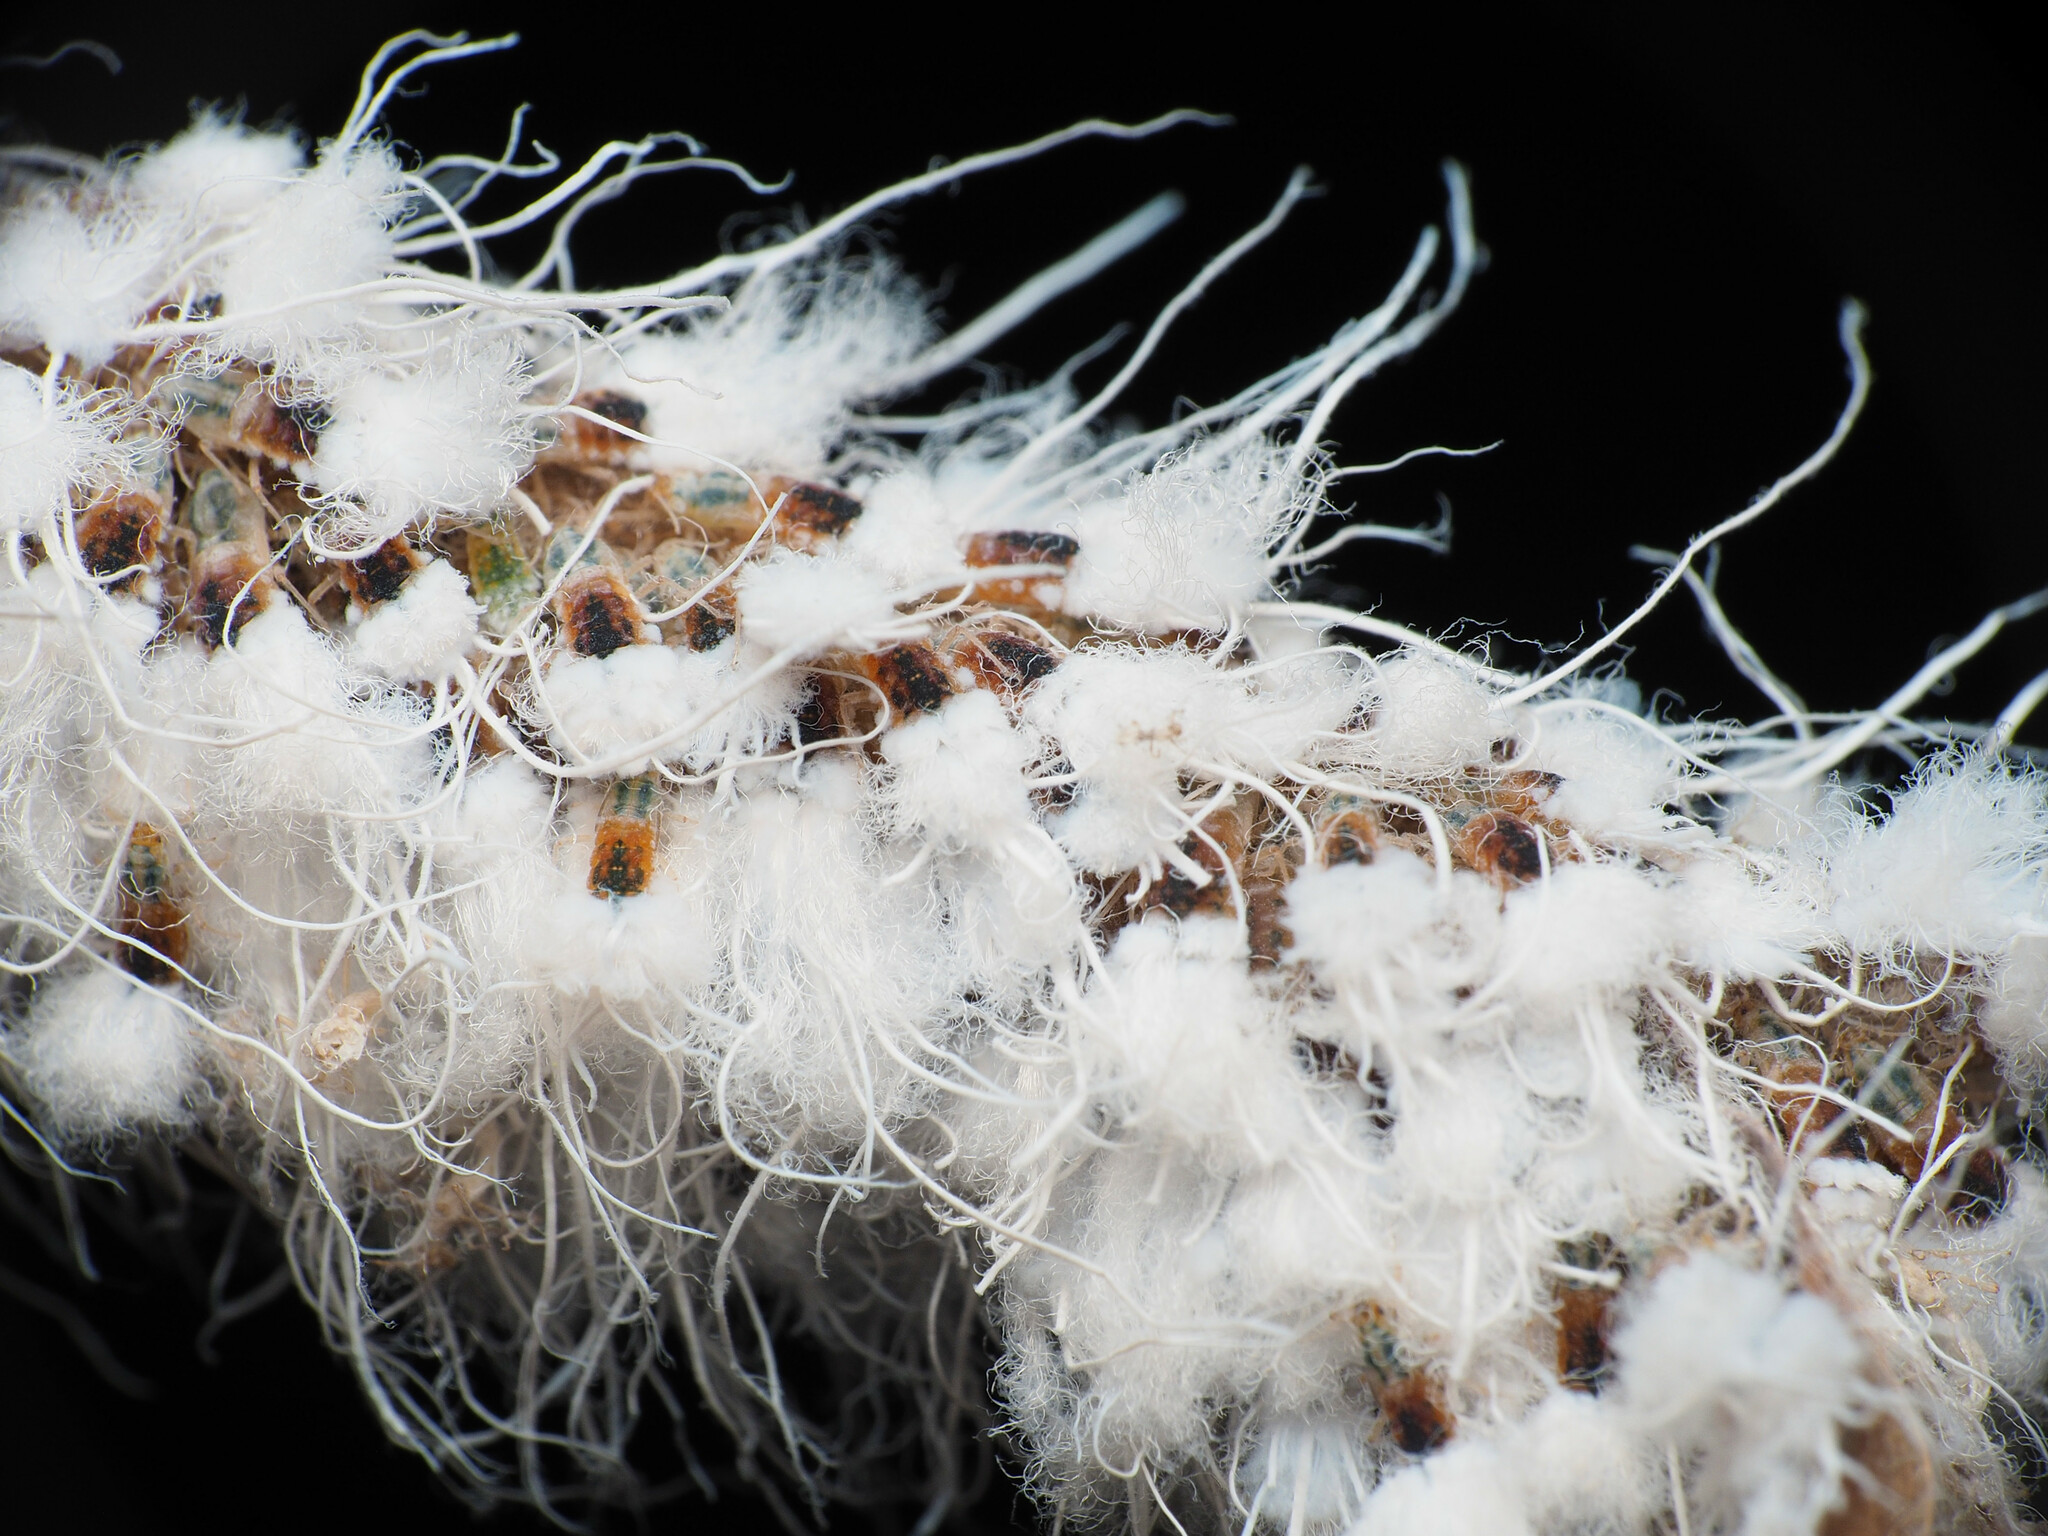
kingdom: Animalia
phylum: Arthropoda
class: Insecta
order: Hemiptera
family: Aphididae
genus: Grylloprociphilus
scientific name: Grylloprociphilus imbricator
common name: Beech blight aphid
